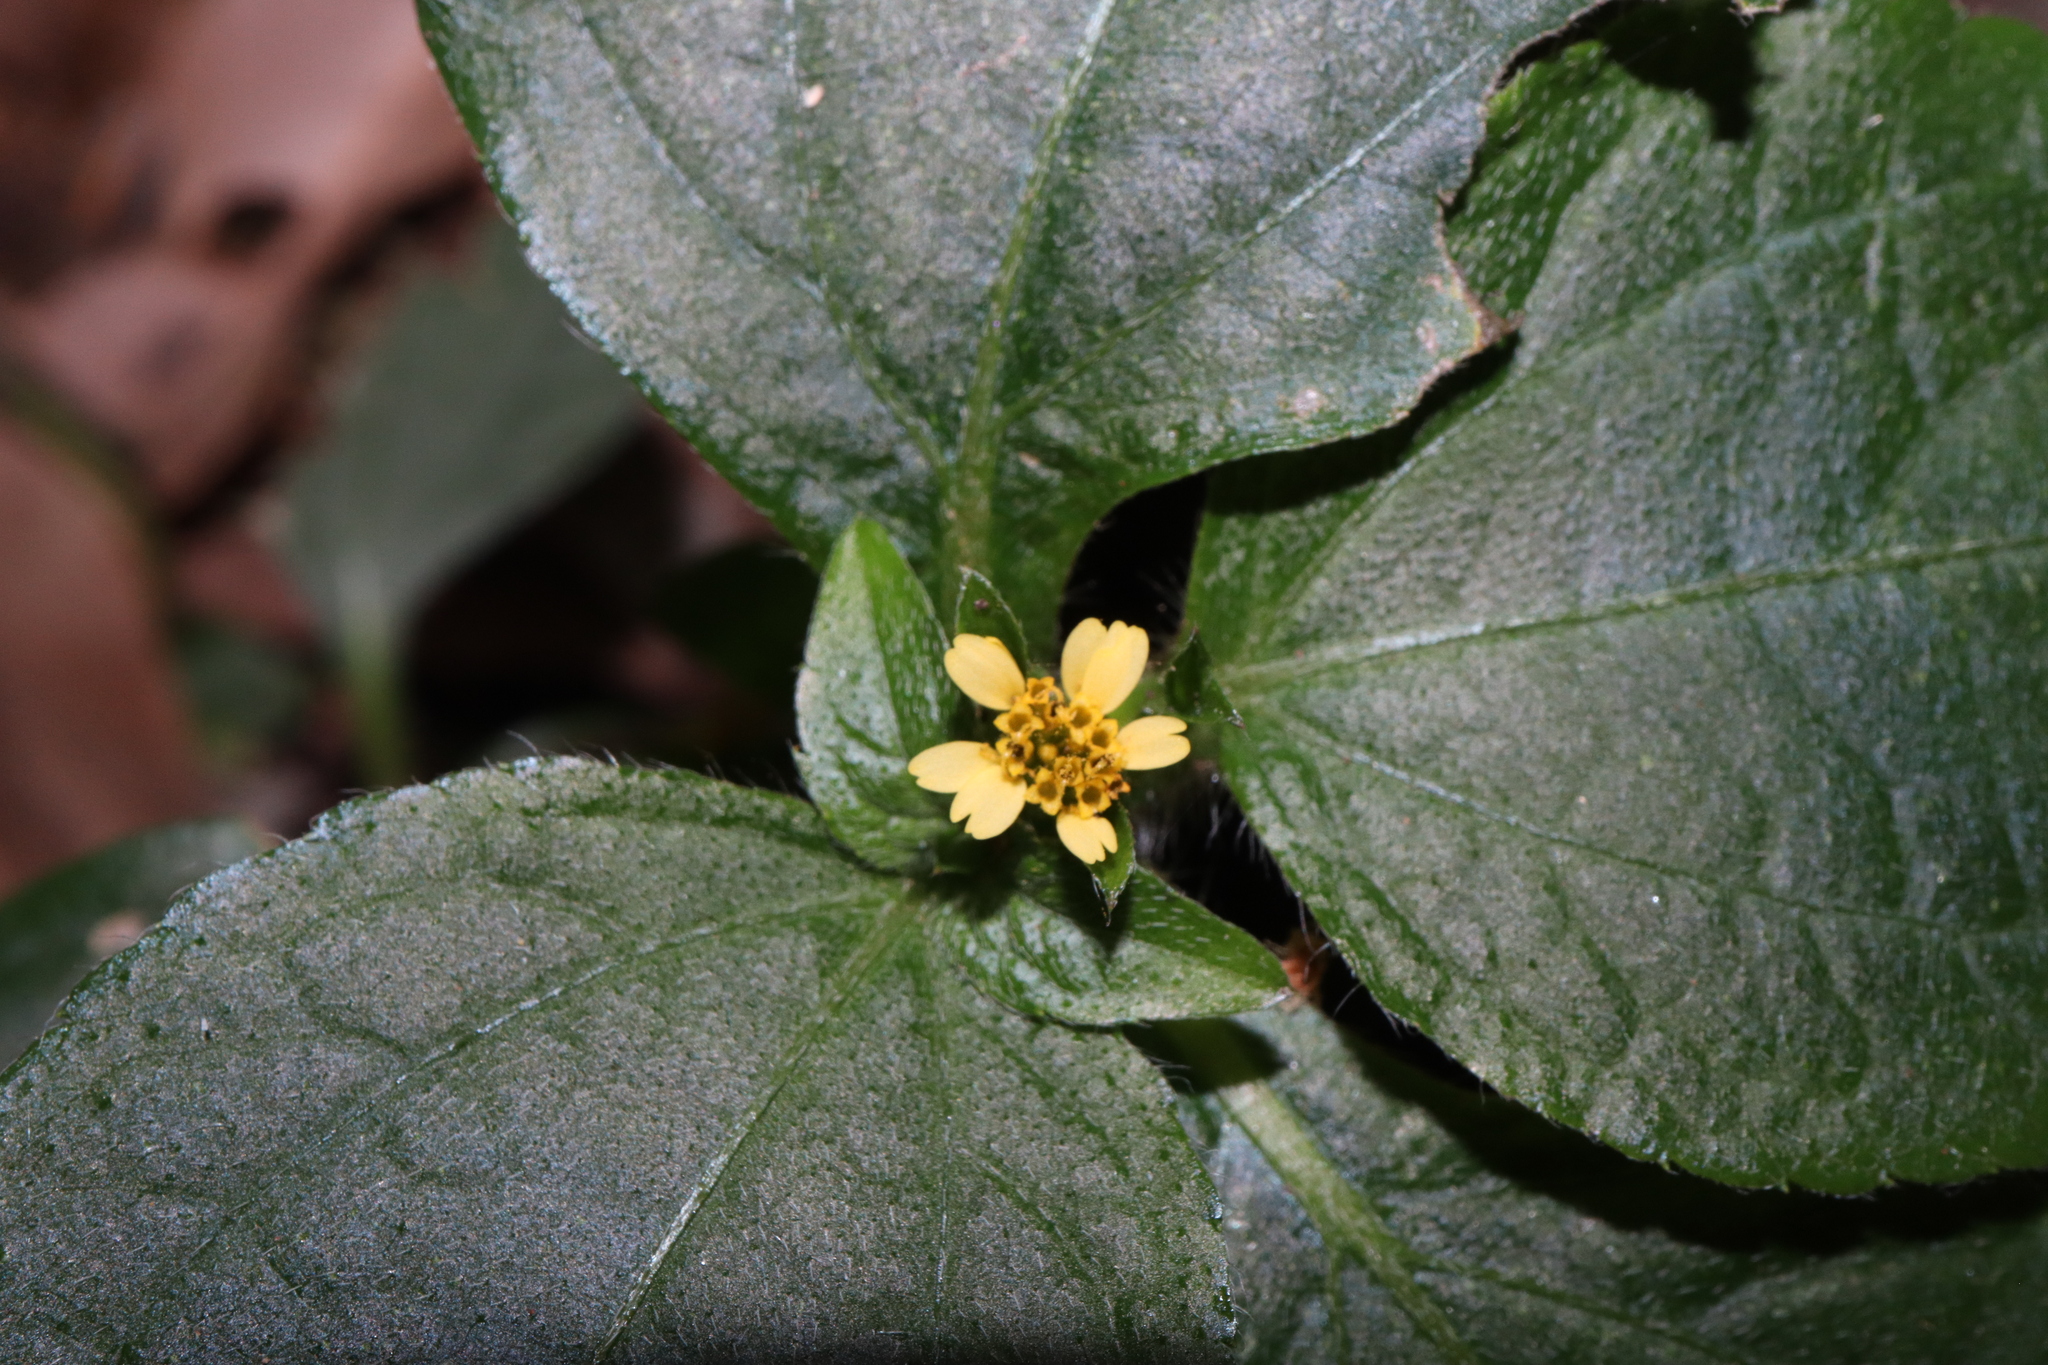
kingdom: Plantae
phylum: Tracheophyta
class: Magnoliopsida
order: Asterales
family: Asteraceae
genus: Synedrella
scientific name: Synedrella nodiflora
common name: Nodeweed
